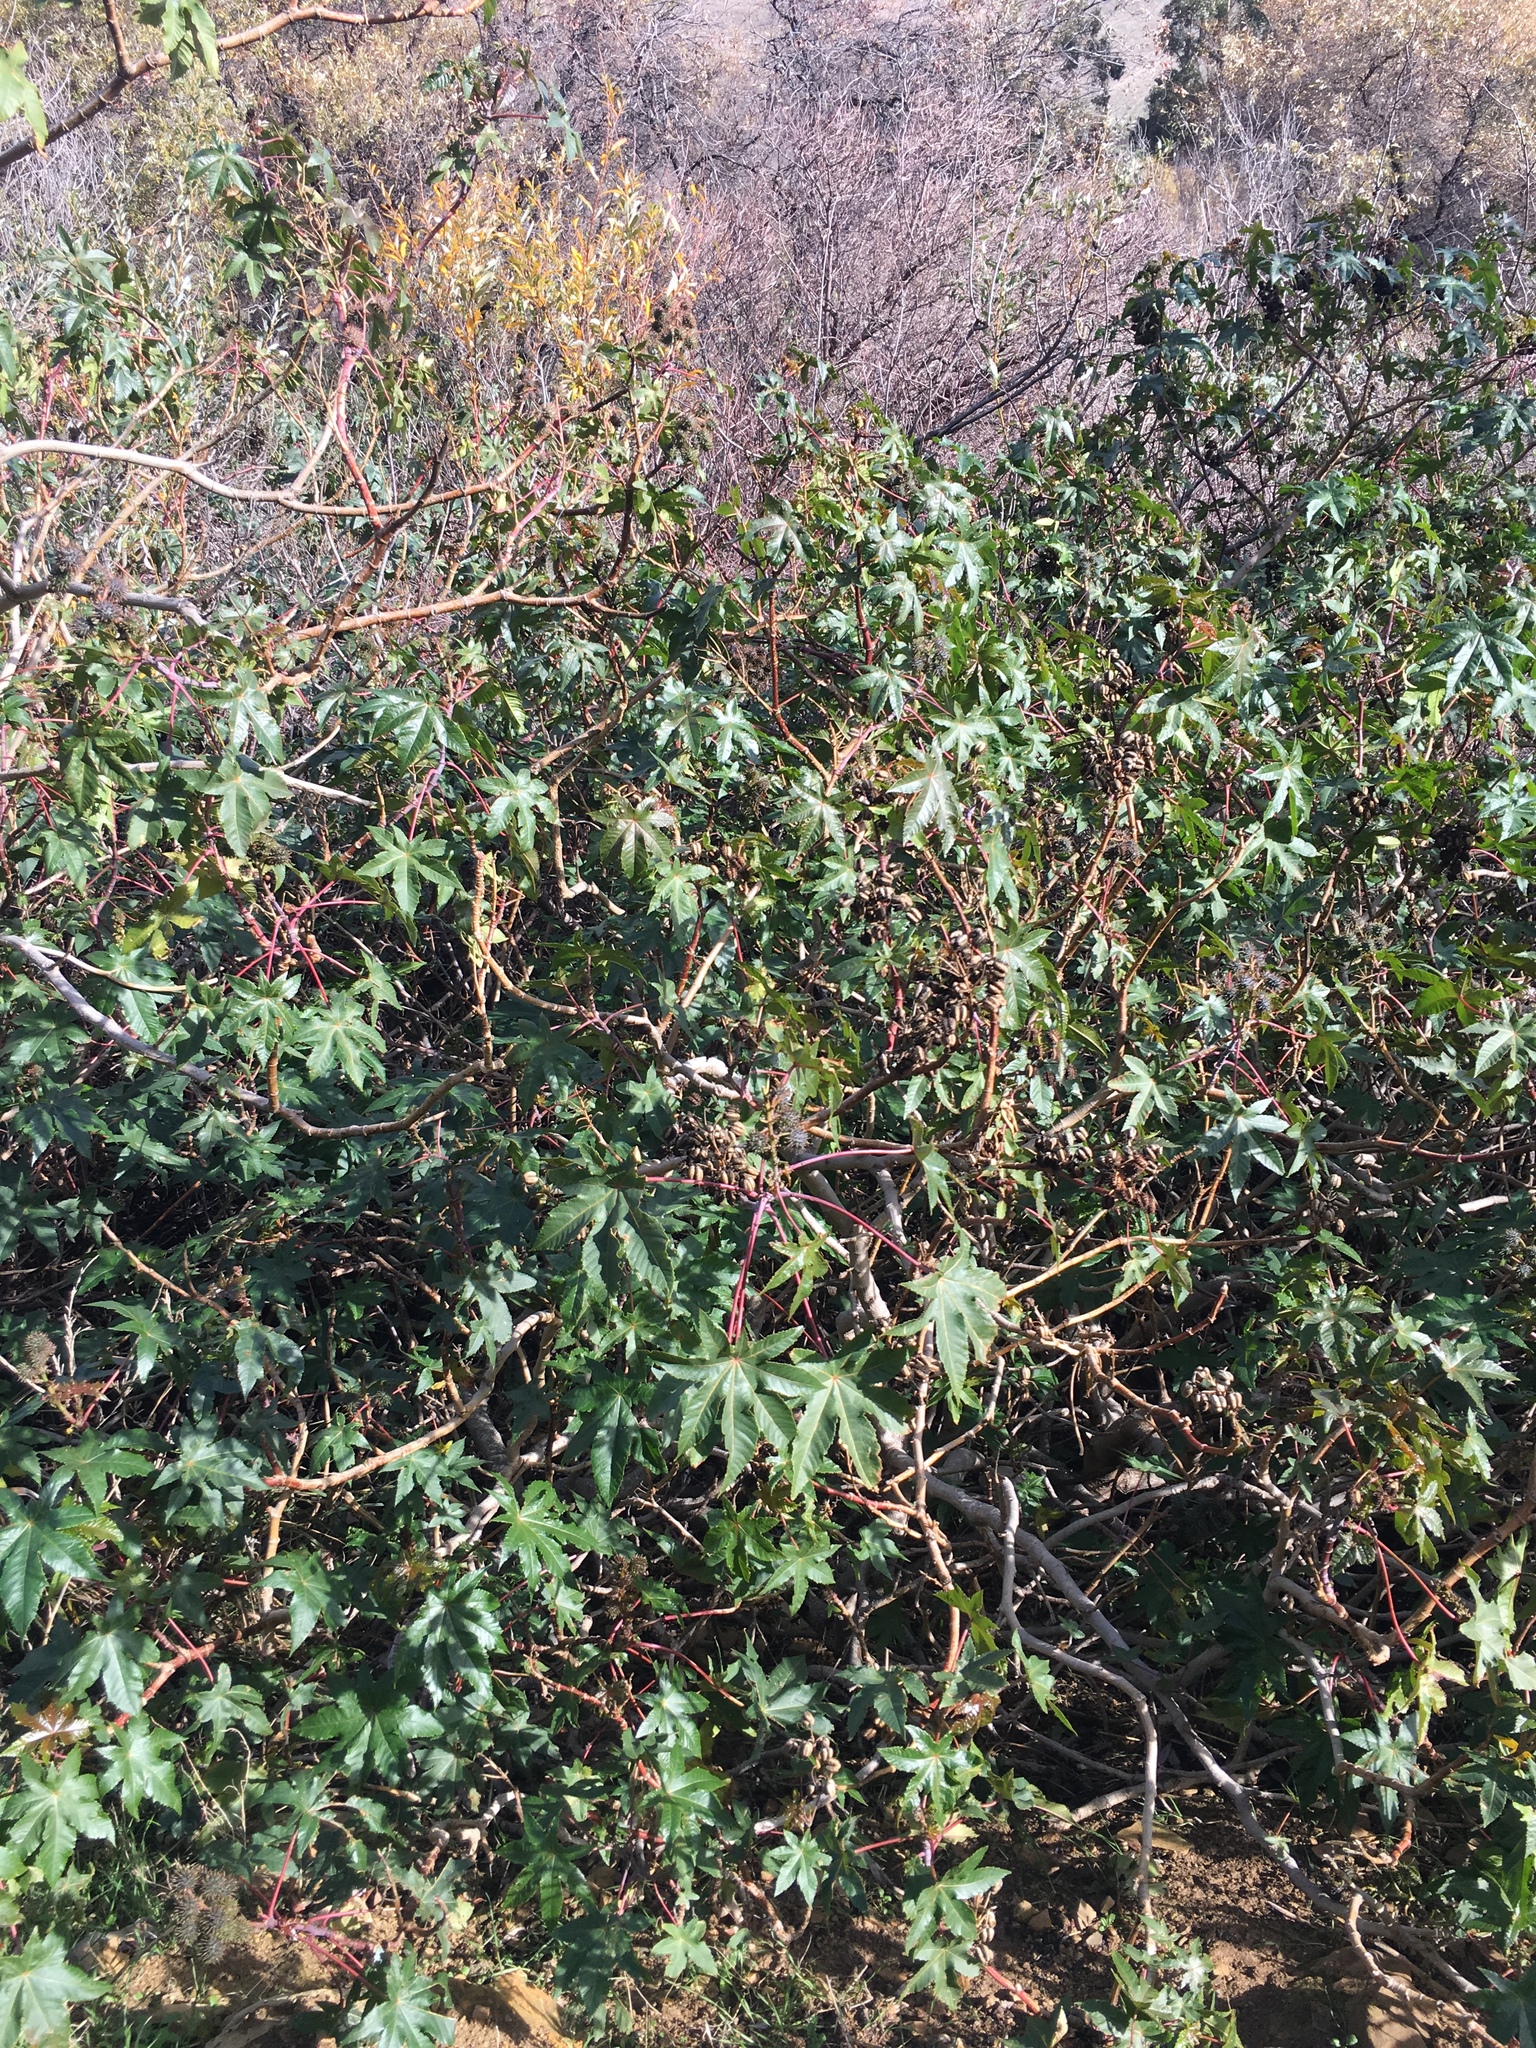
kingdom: Plantae
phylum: Tracheophyta
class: Magnoliopsida
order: Malpighiales
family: Euphorbiaceae
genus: Ricinus
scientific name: Ricinus communis
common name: Castor-oil-plant
